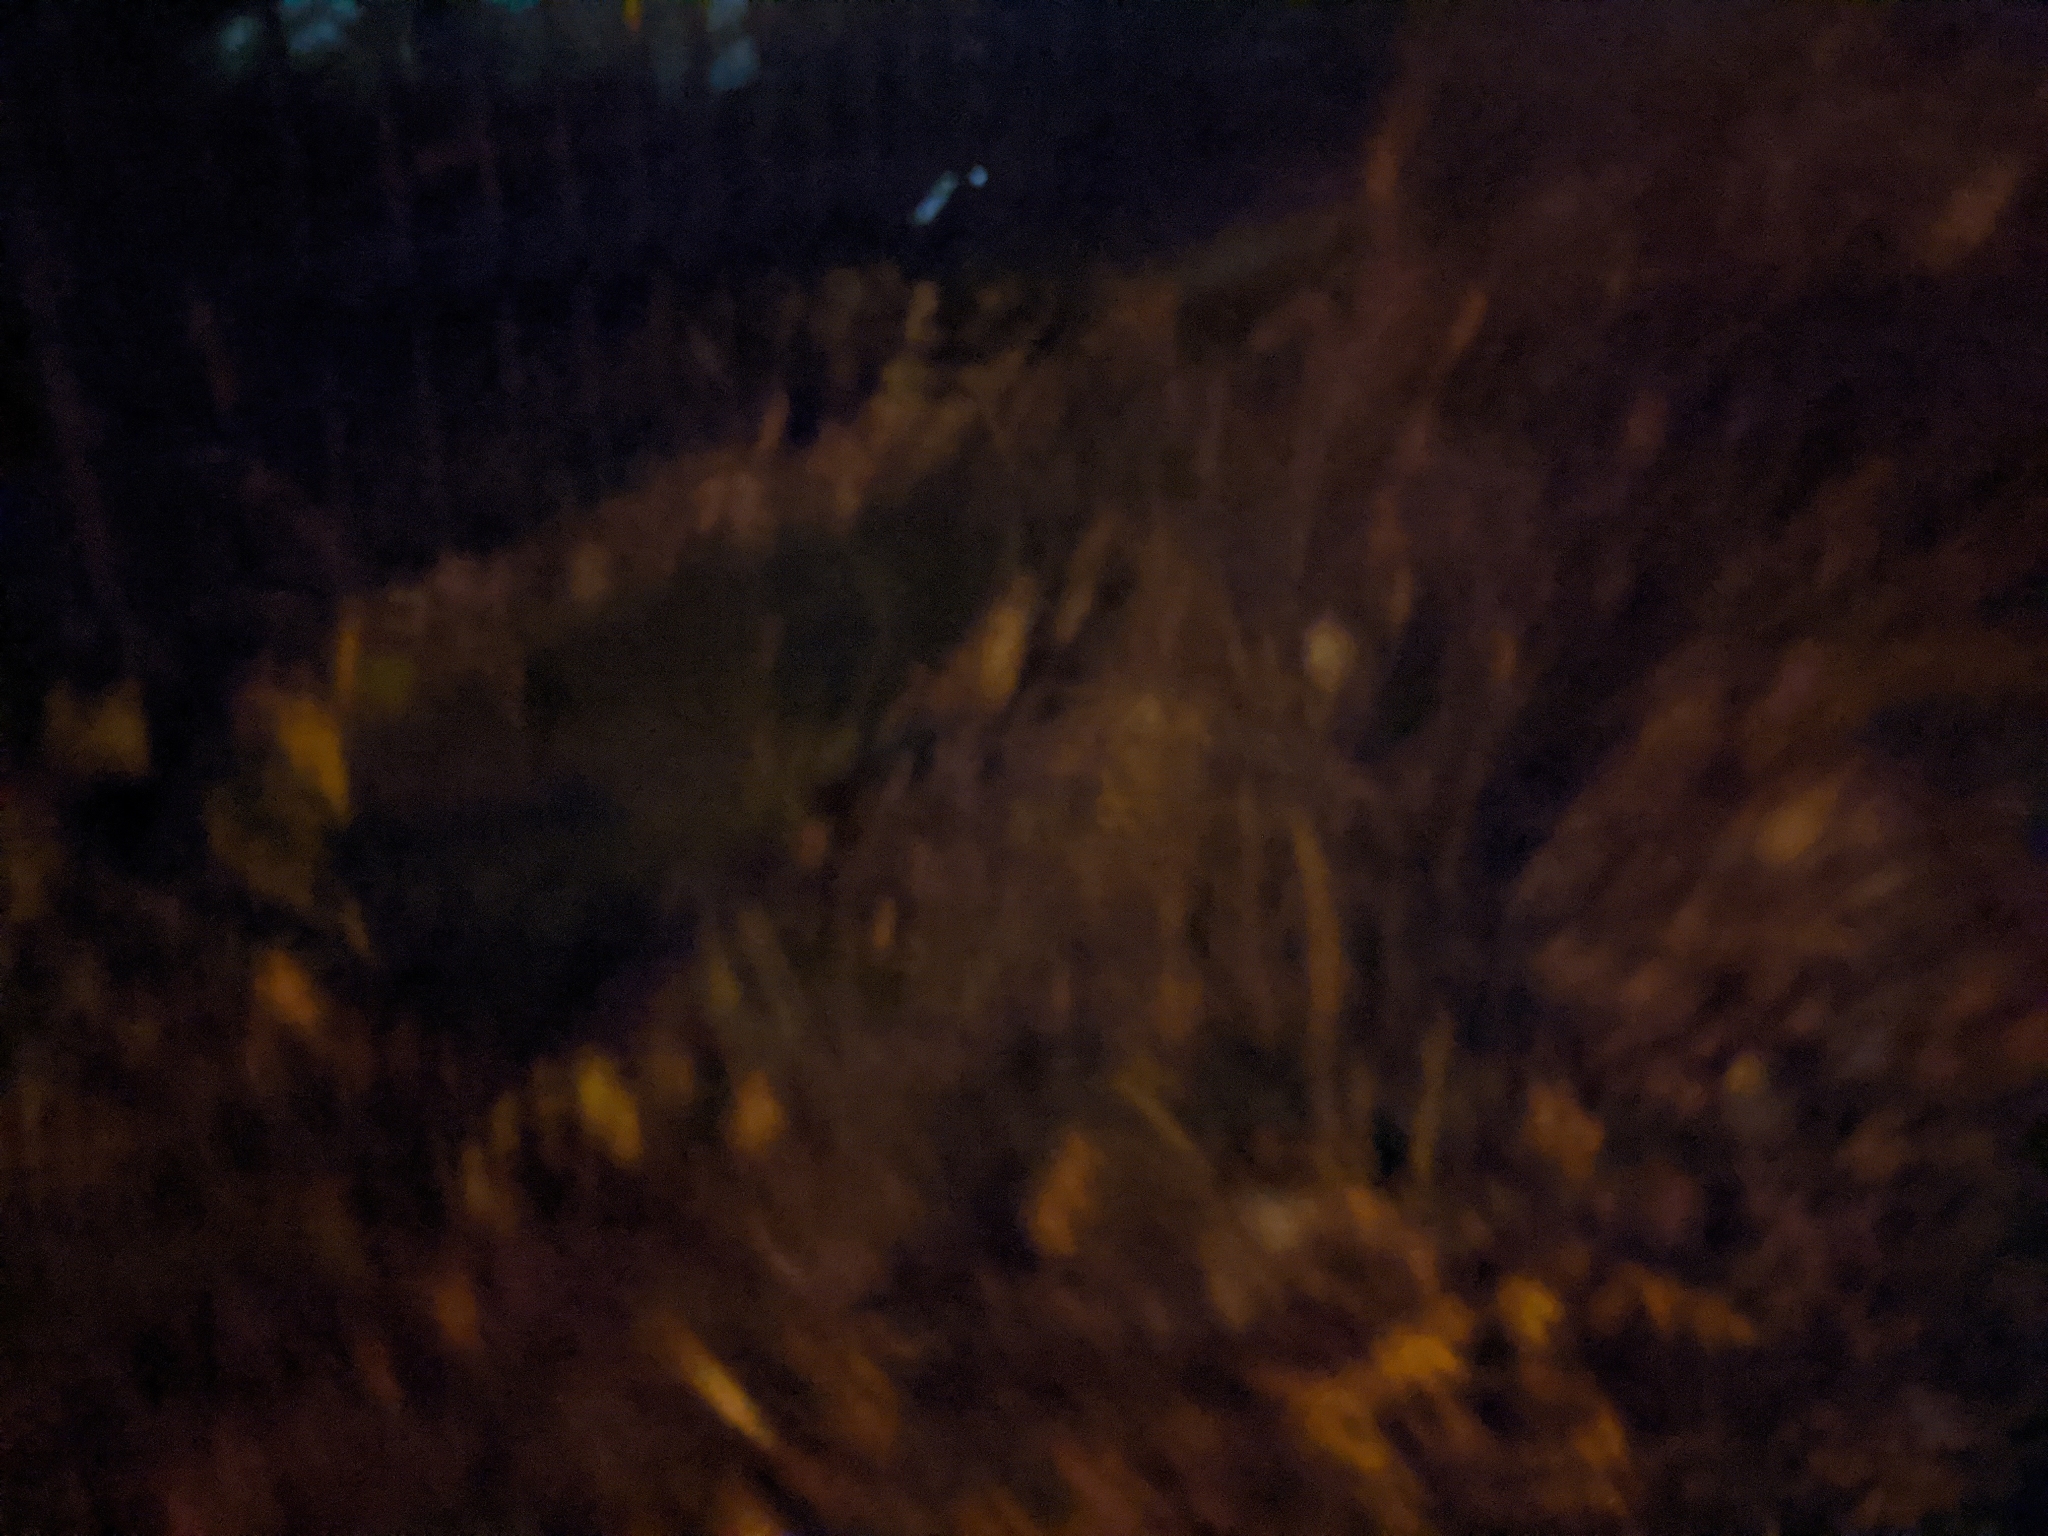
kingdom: Animalia
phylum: Chordata
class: Mammalia
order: Carnivora
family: Canidae
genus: Vulpes
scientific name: Vulpes vulpes
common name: Red fox
